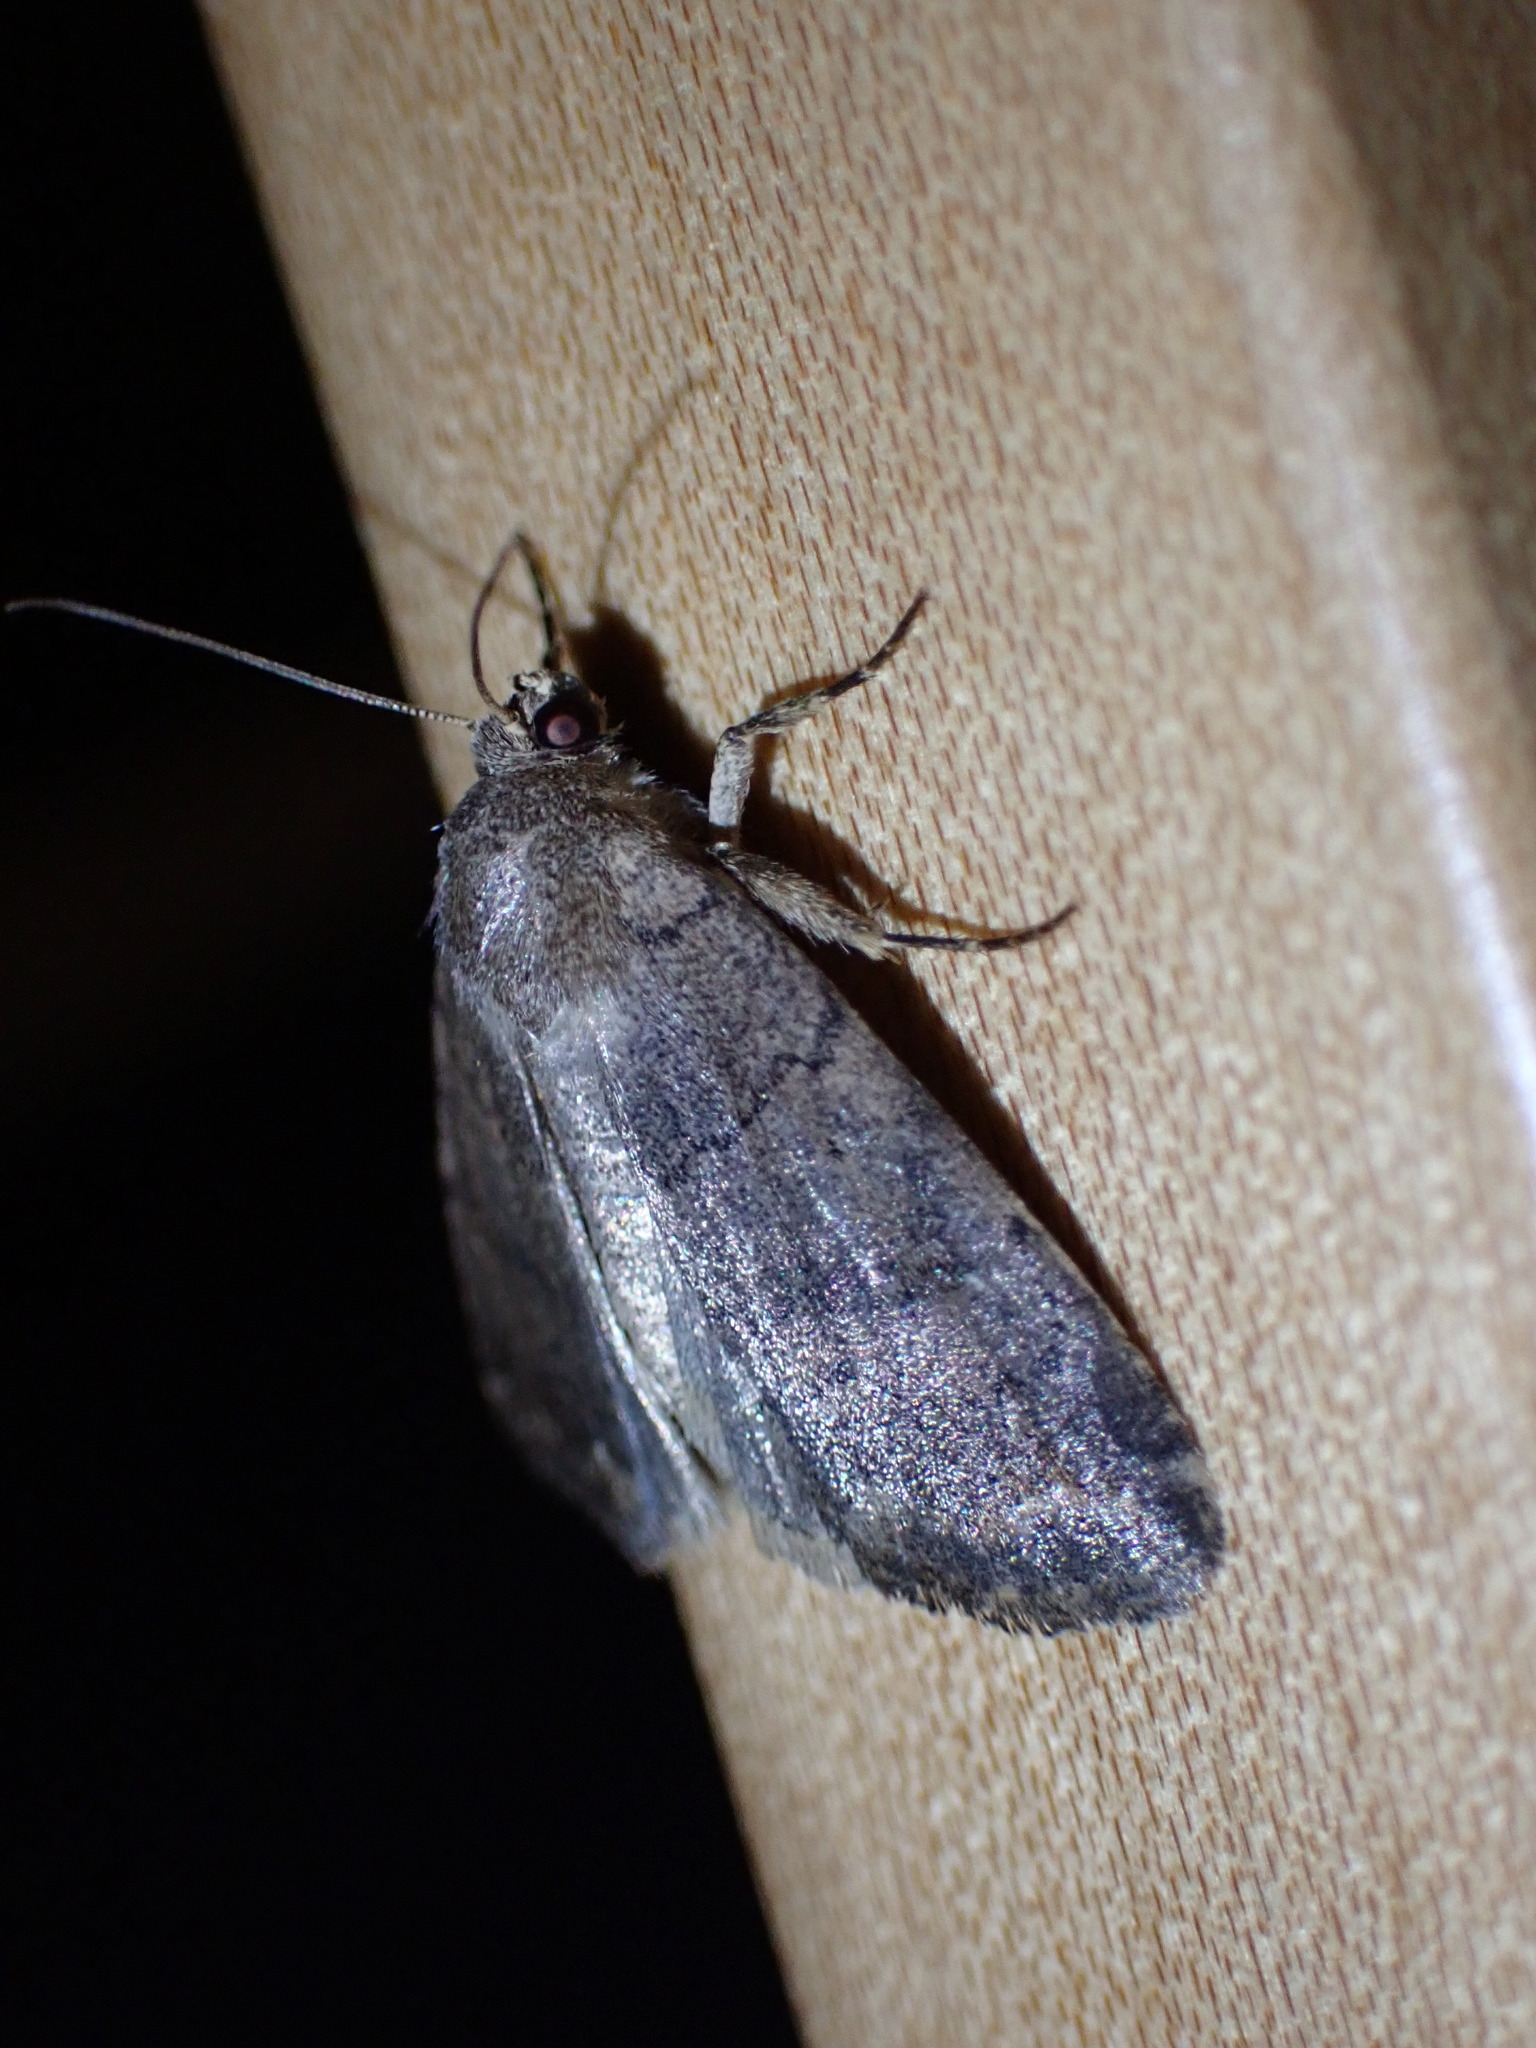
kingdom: Animalia
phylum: Arthropoda
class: Insecta
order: Lepidoptera
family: Noctuidae
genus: Athetis
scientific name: Athetis tarda
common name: Slowpoke moth
